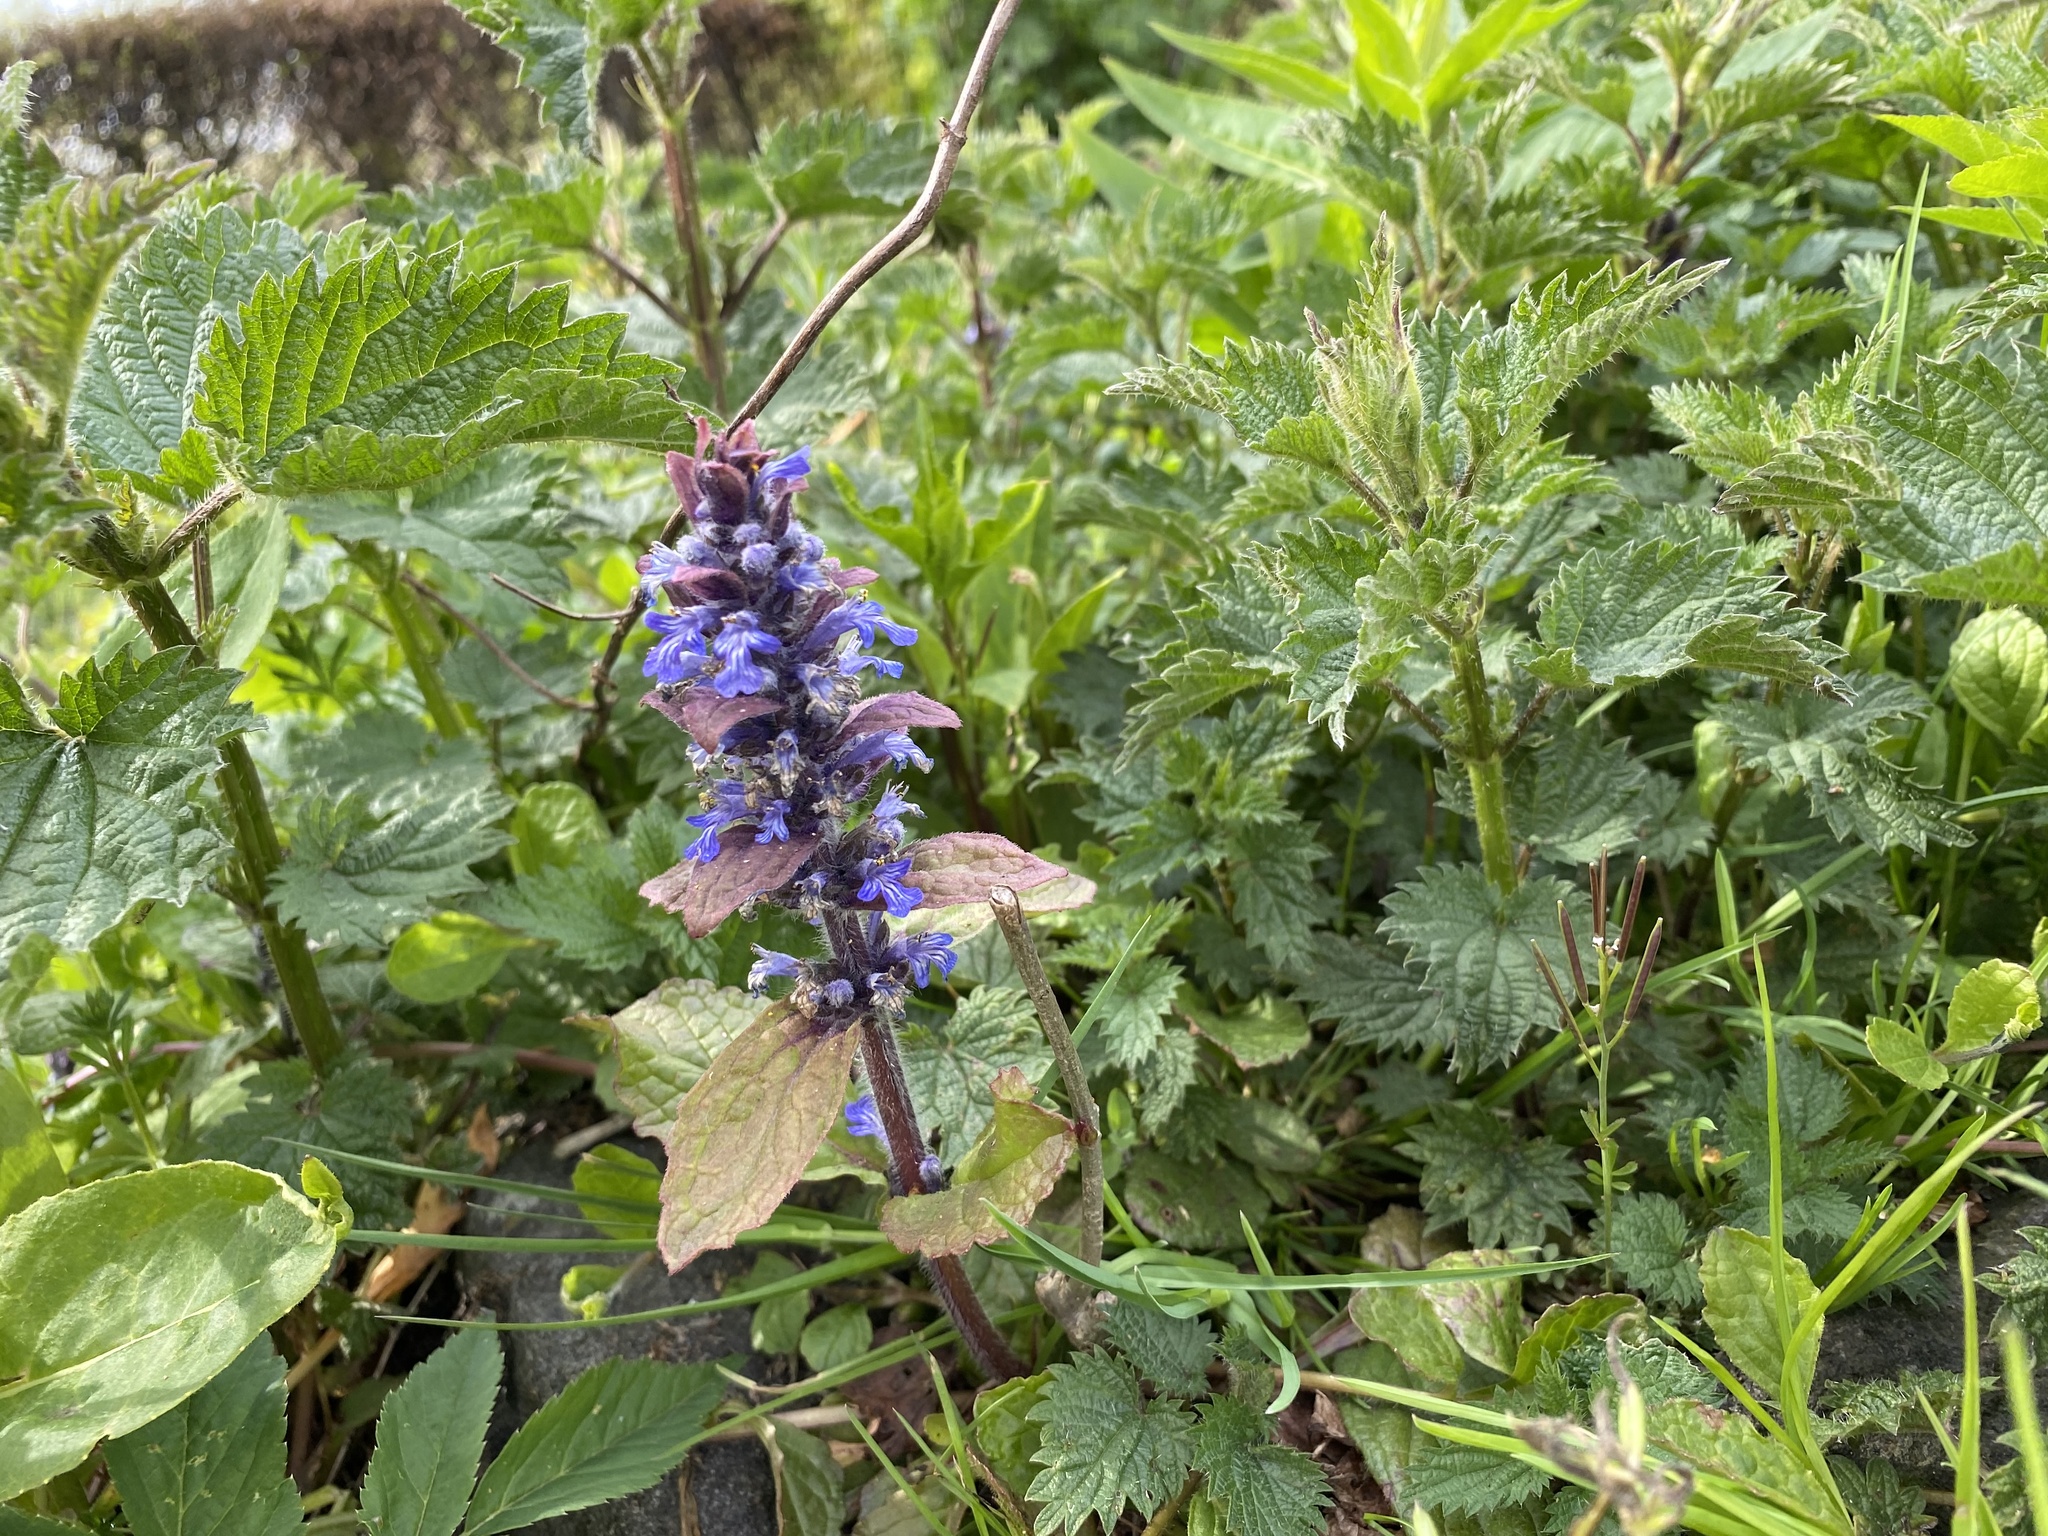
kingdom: Plantae
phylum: Tracheophyta
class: Magnoliopsida
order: Lamiales
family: Lamiaceae
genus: Ajuga
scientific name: Ajuga reptans
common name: Bugle
